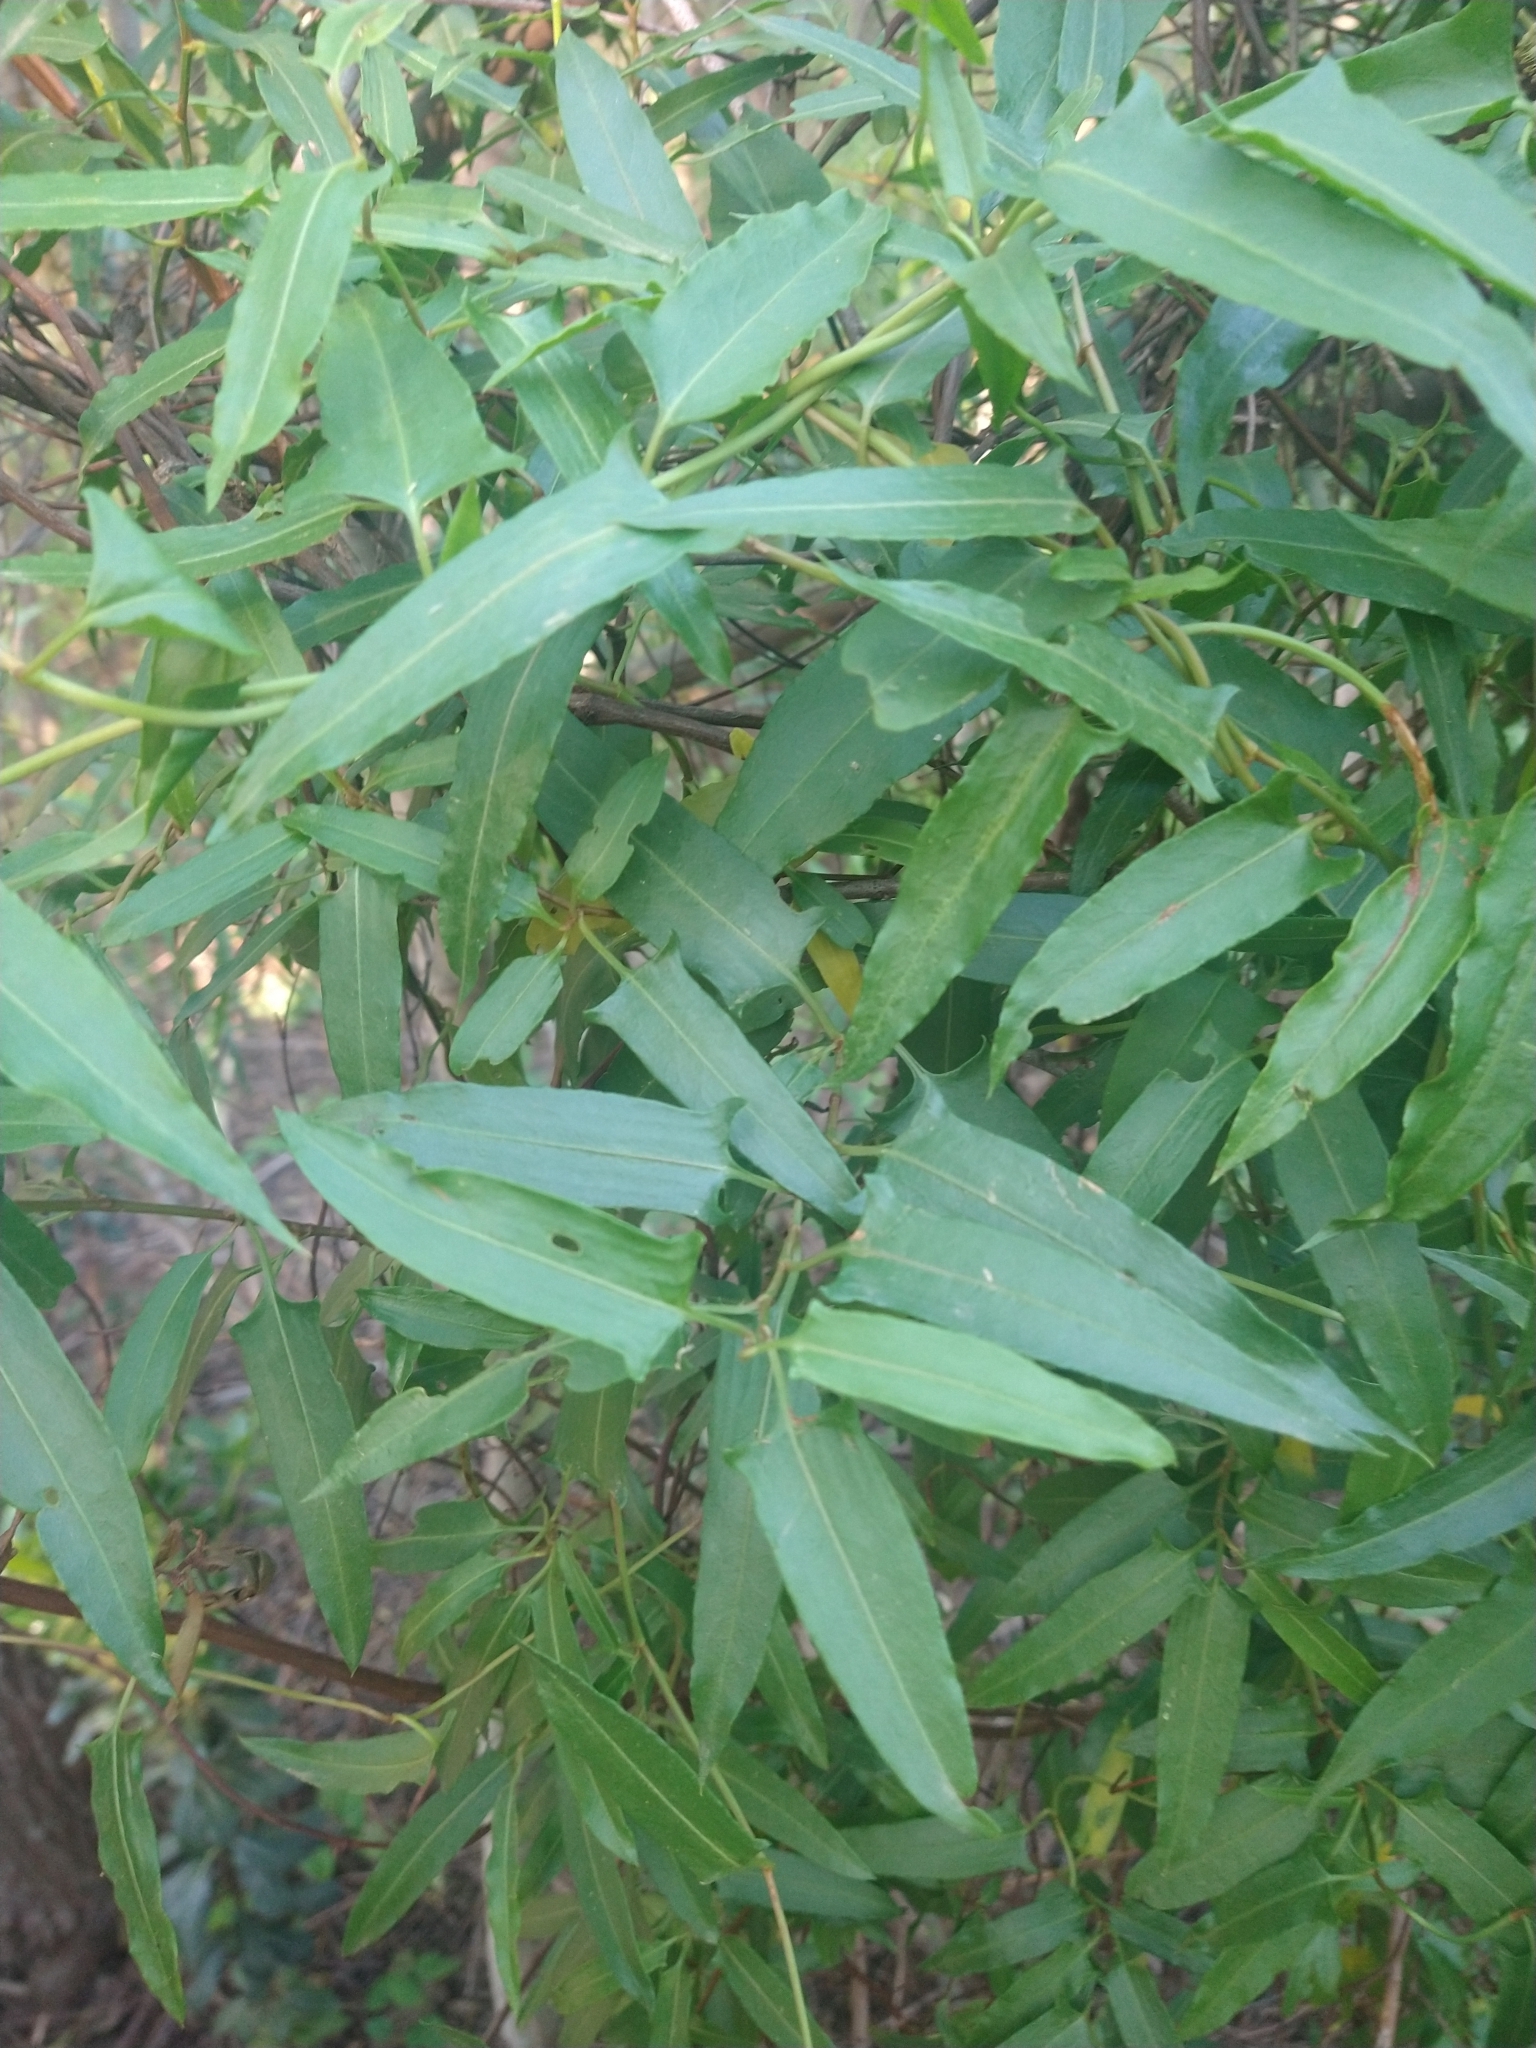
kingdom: Plantae
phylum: Tracheophyta
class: Magnoliopsida
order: Caryophyllales
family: Polygonaceae
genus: Muehlenbeckia
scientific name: Muehlenbeckia sagittifolia
